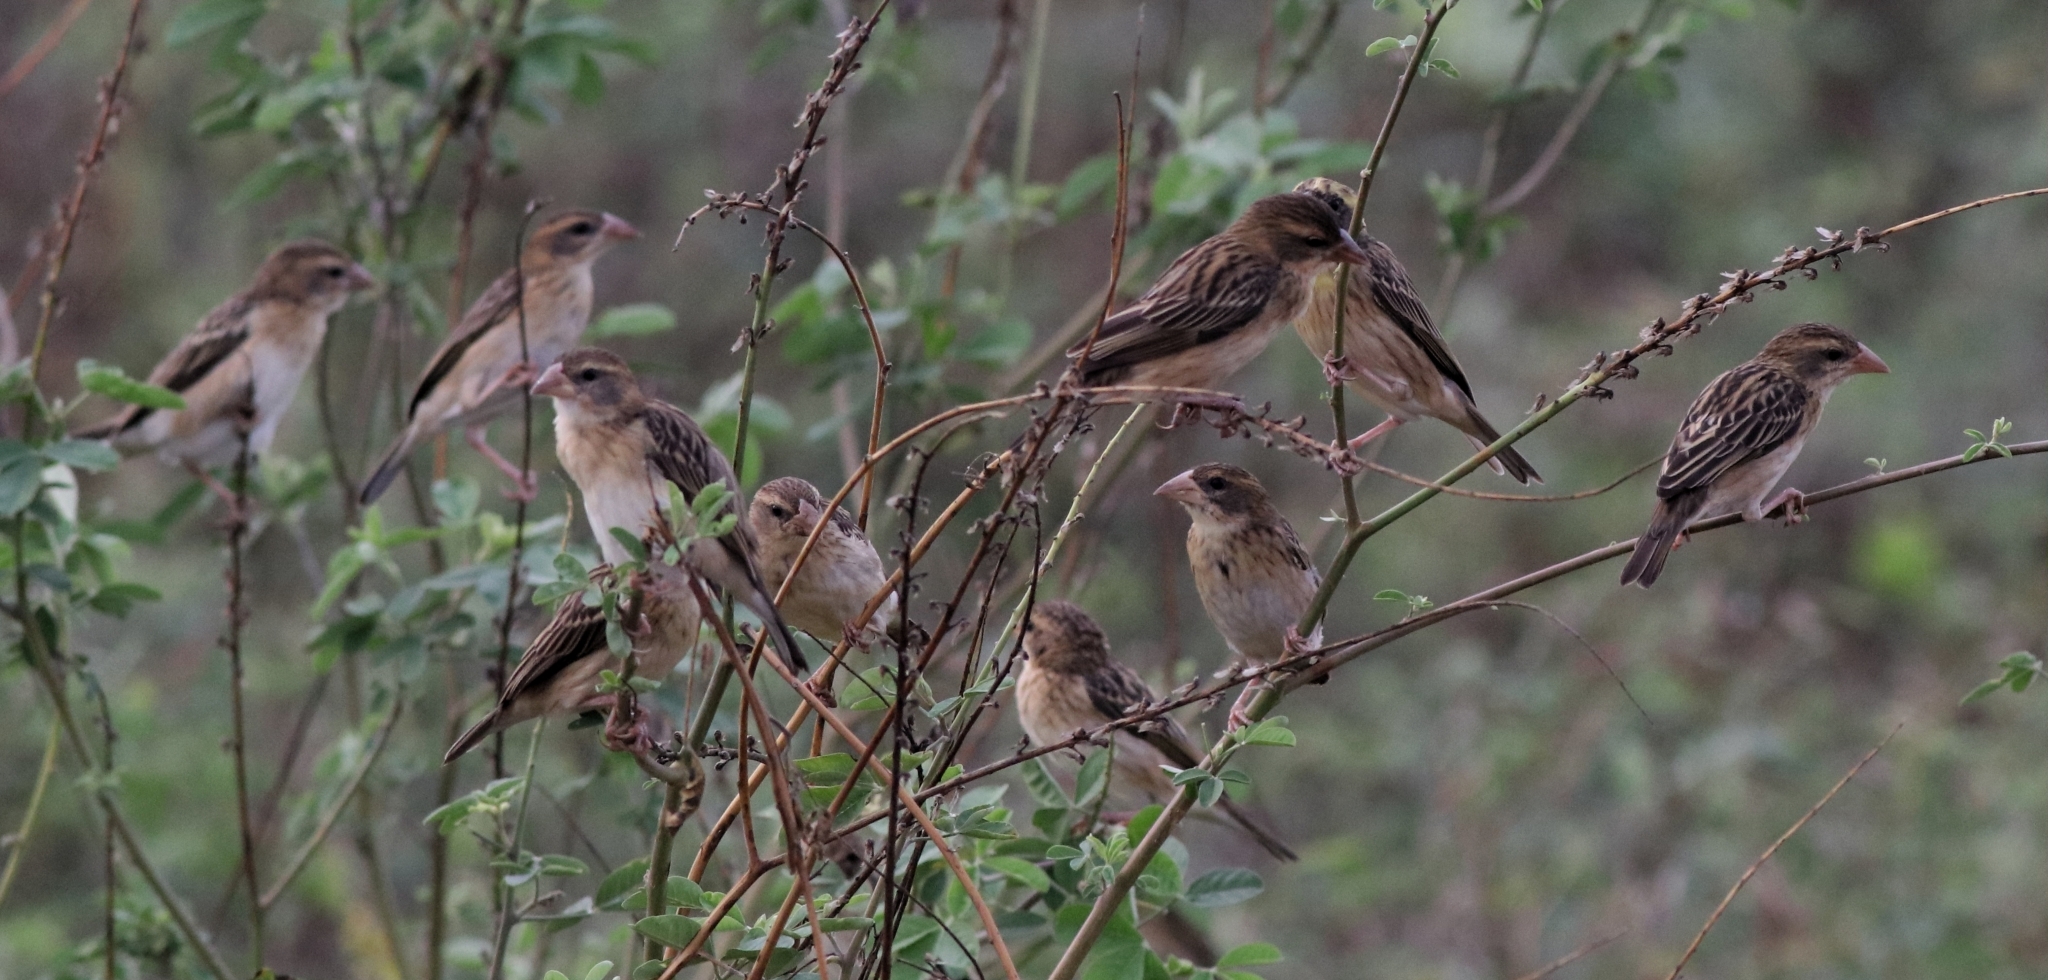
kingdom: Animalia
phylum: Chordata
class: Aves
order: Passeriformes
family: Ploceidae
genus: Ploceus
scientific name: Ploceus philippinus
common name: Baya weaver
